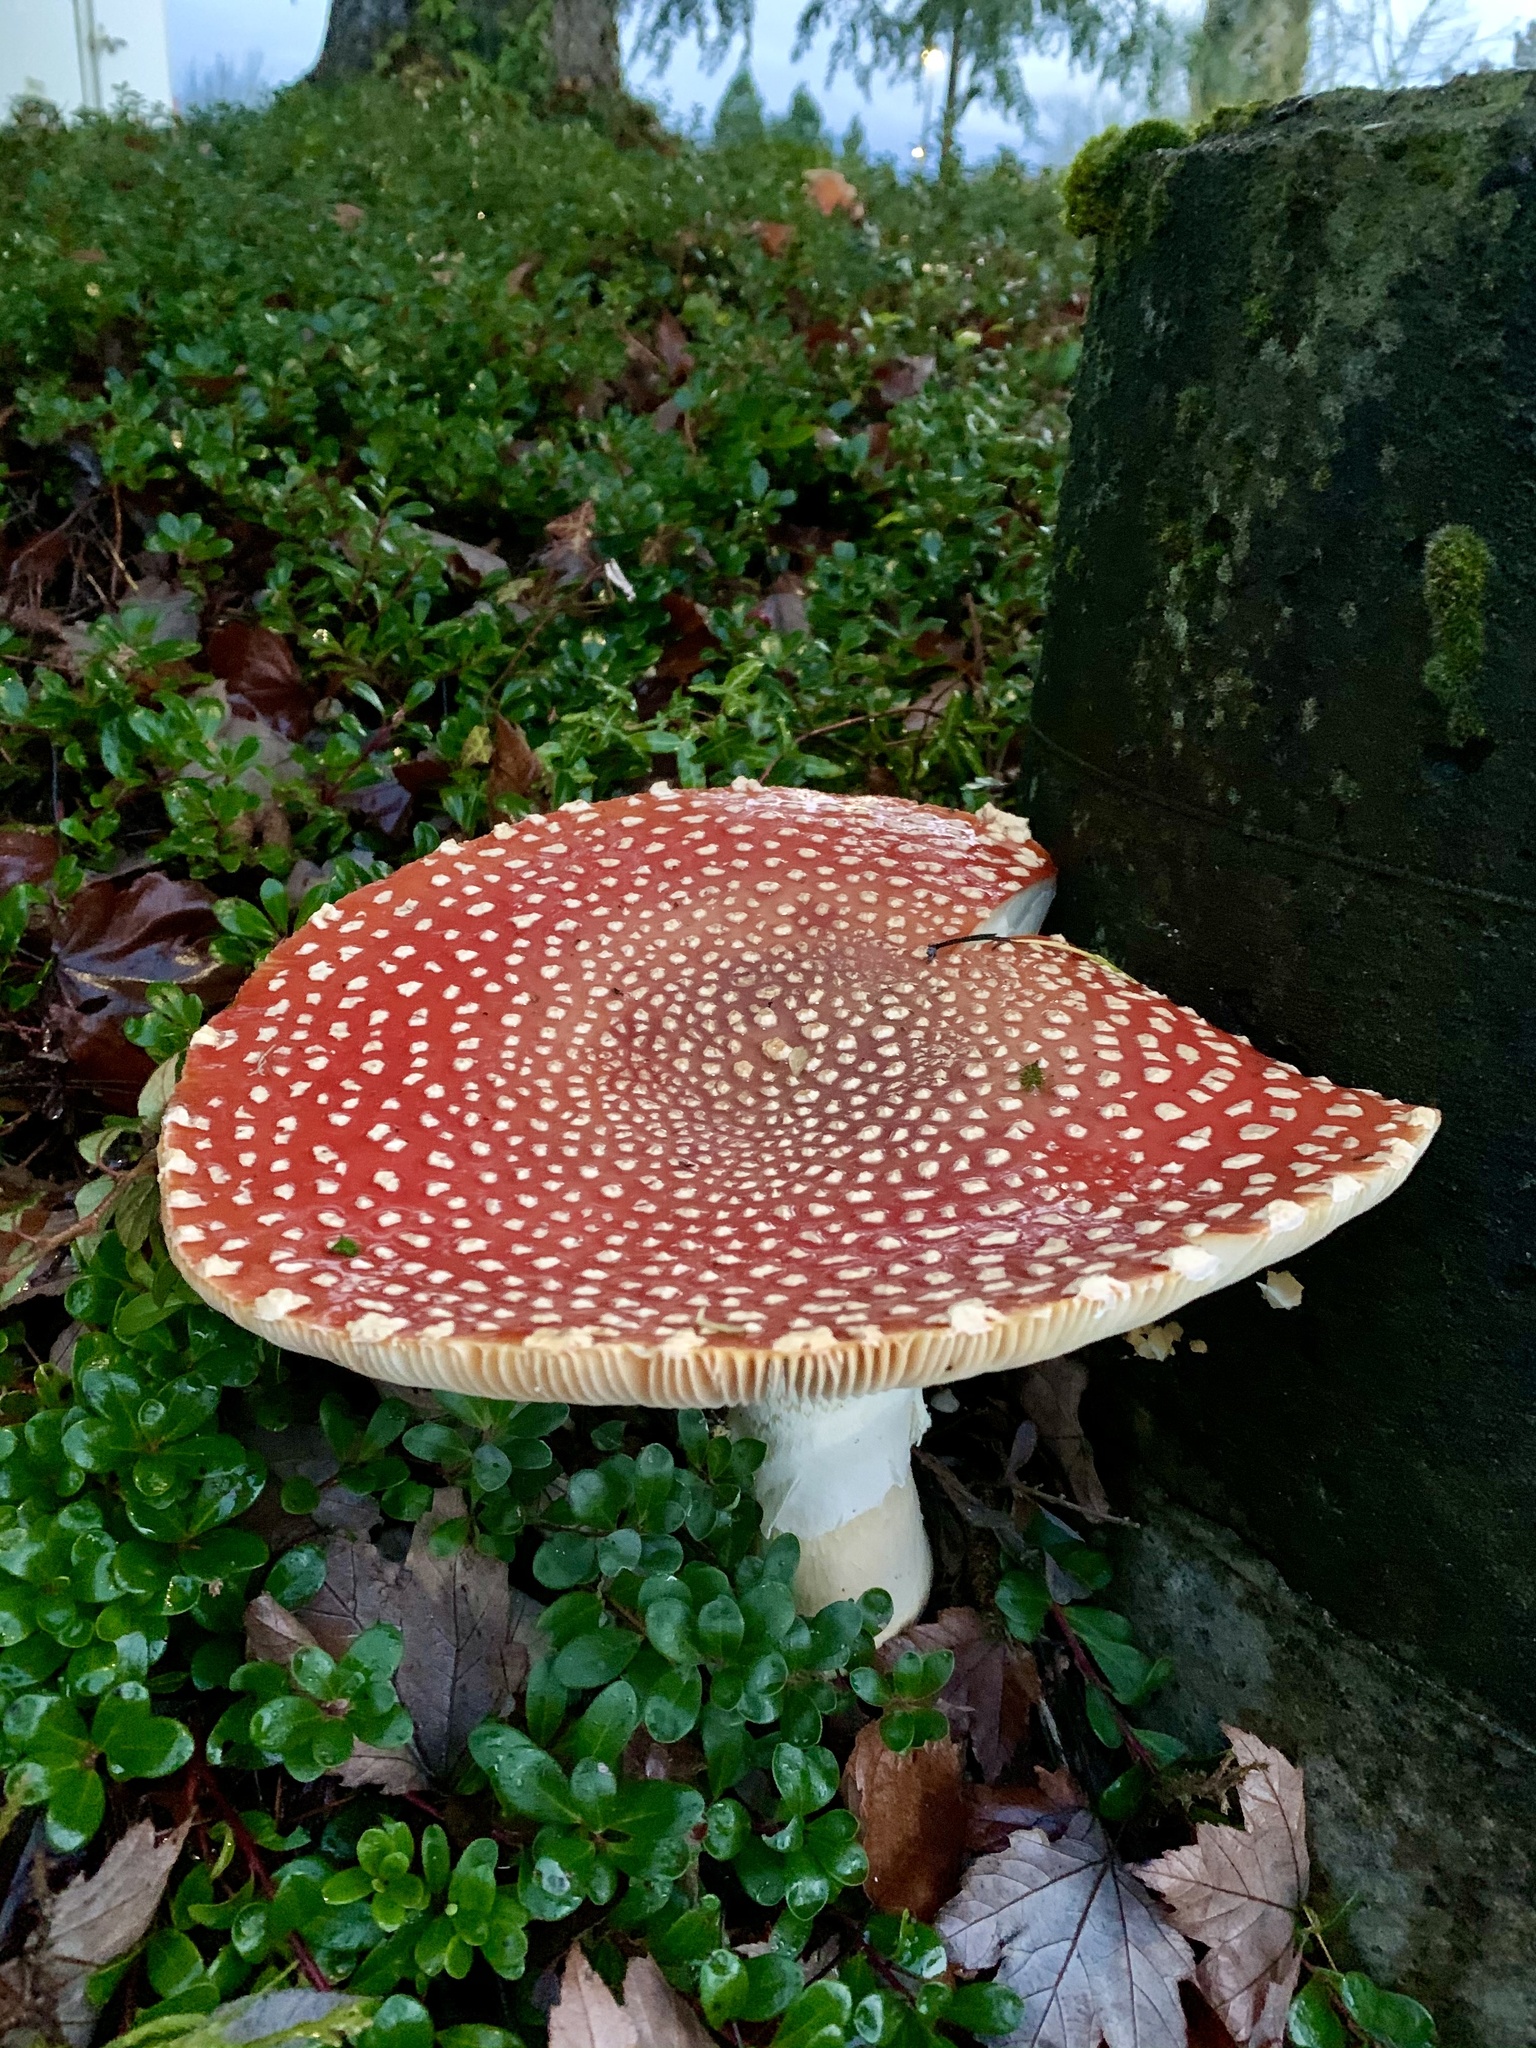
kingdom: Fungi
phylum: Basidiomycota
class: Agaricomycetes
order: Agaricales
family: Amanitaceae
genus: Amanita
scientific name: Amanita muscaria
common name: Fly agaric
